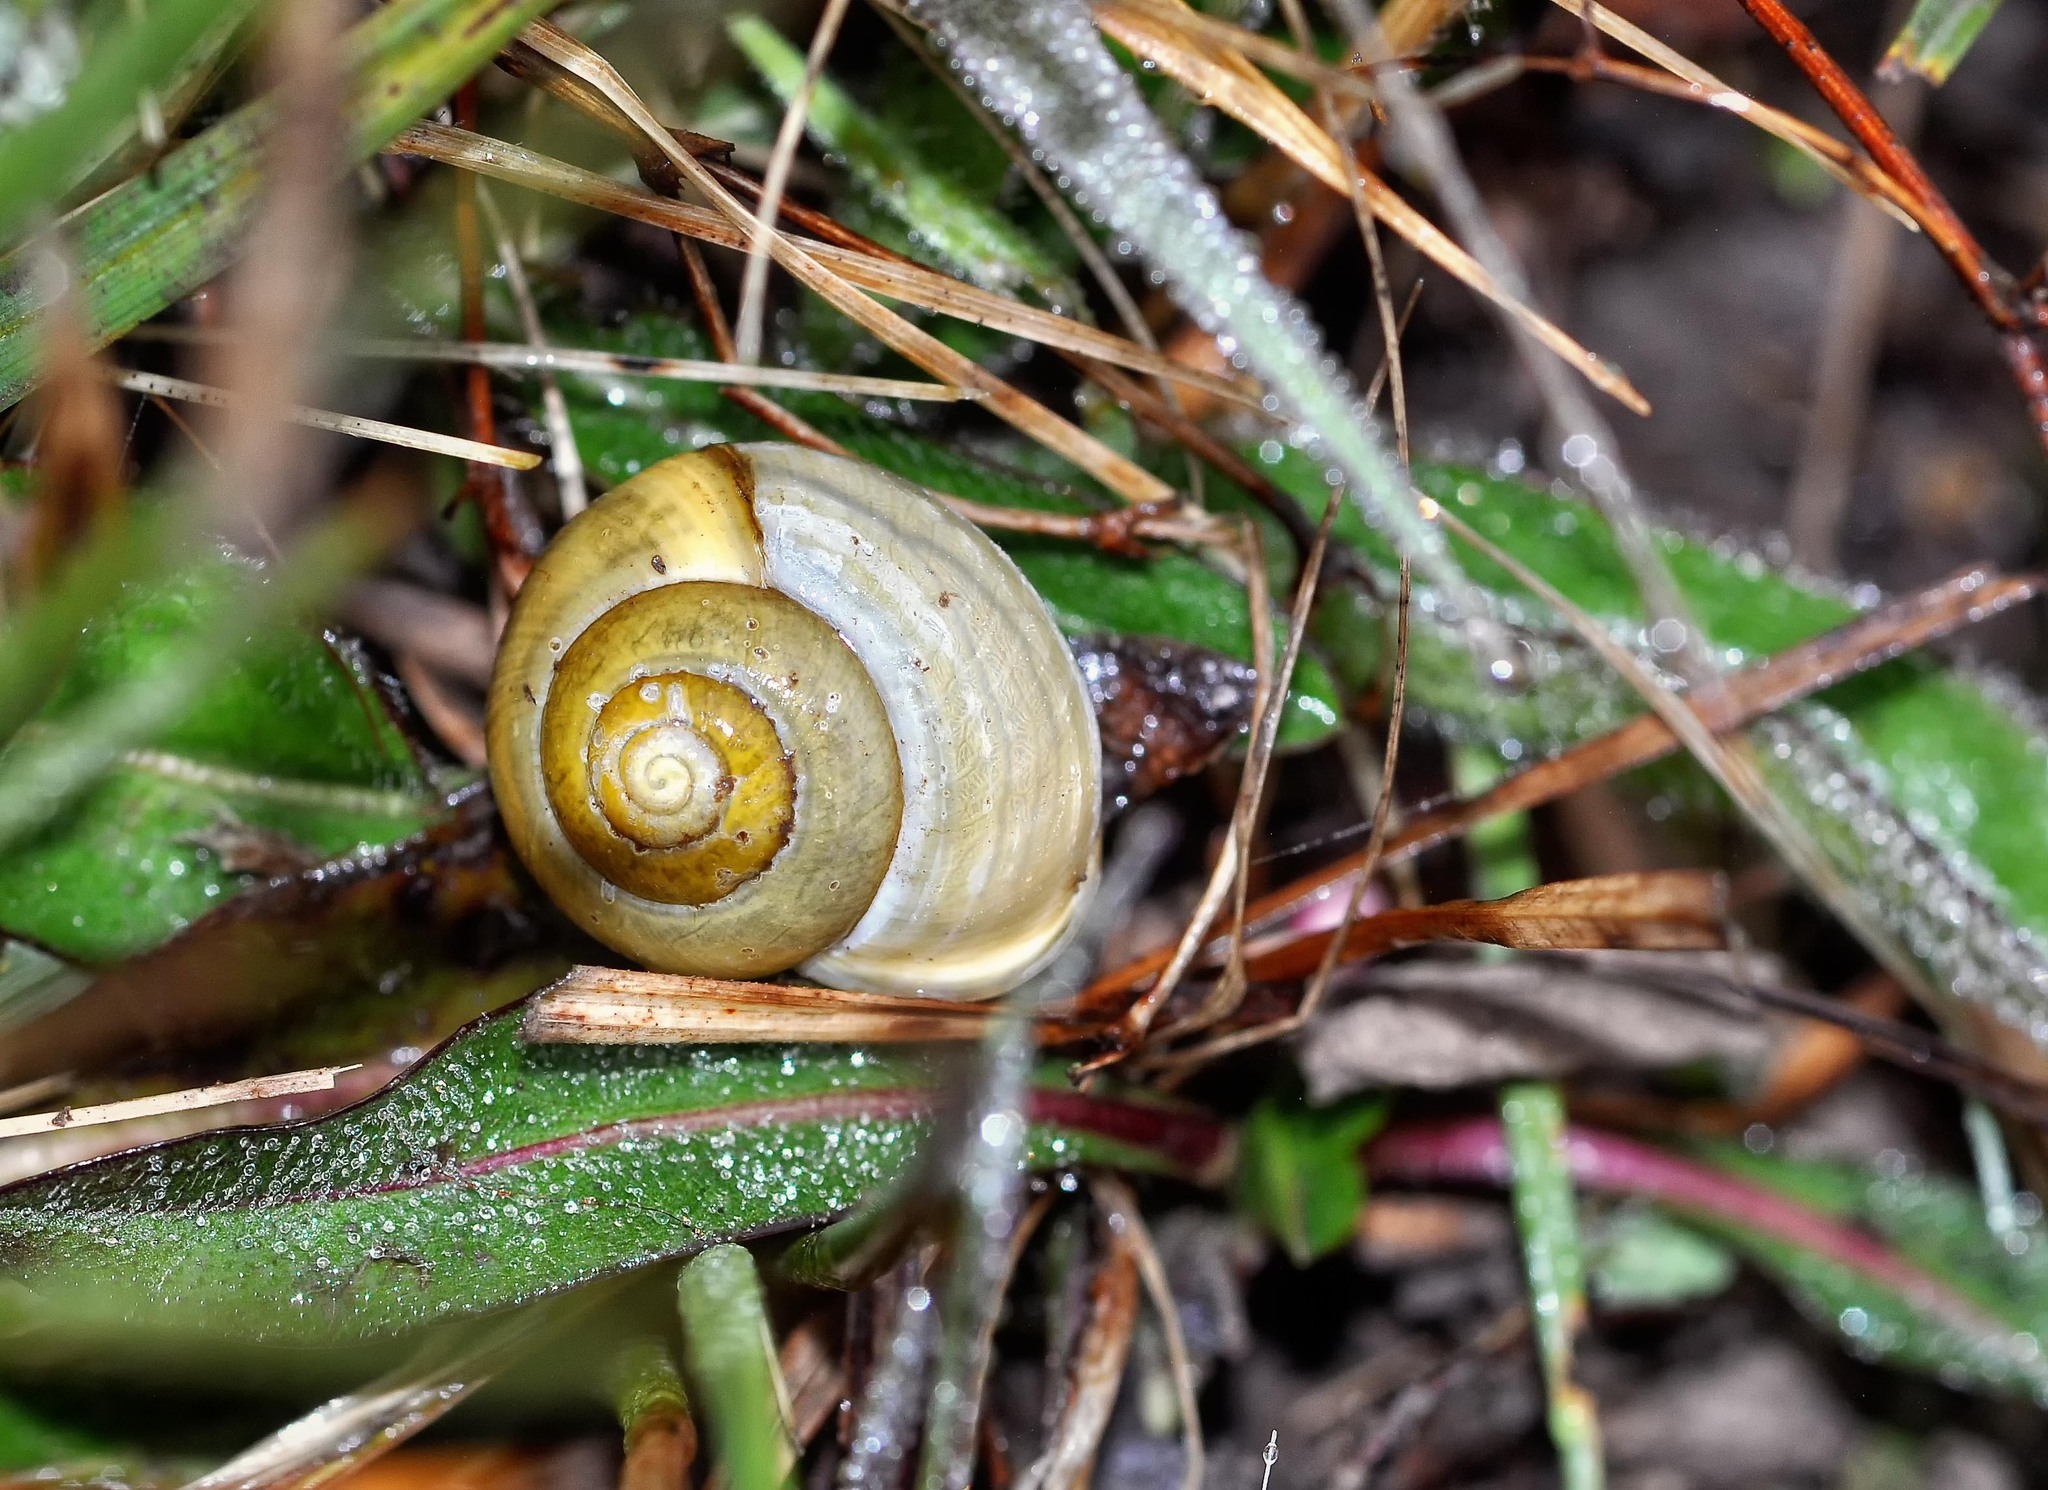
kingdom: Animalia
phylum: Mollusca
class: Gastropoda
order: Stylommatophora
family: Helicidae
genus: Cepaea
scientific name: Cepaea hortensis
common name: White-lip gardensnail
